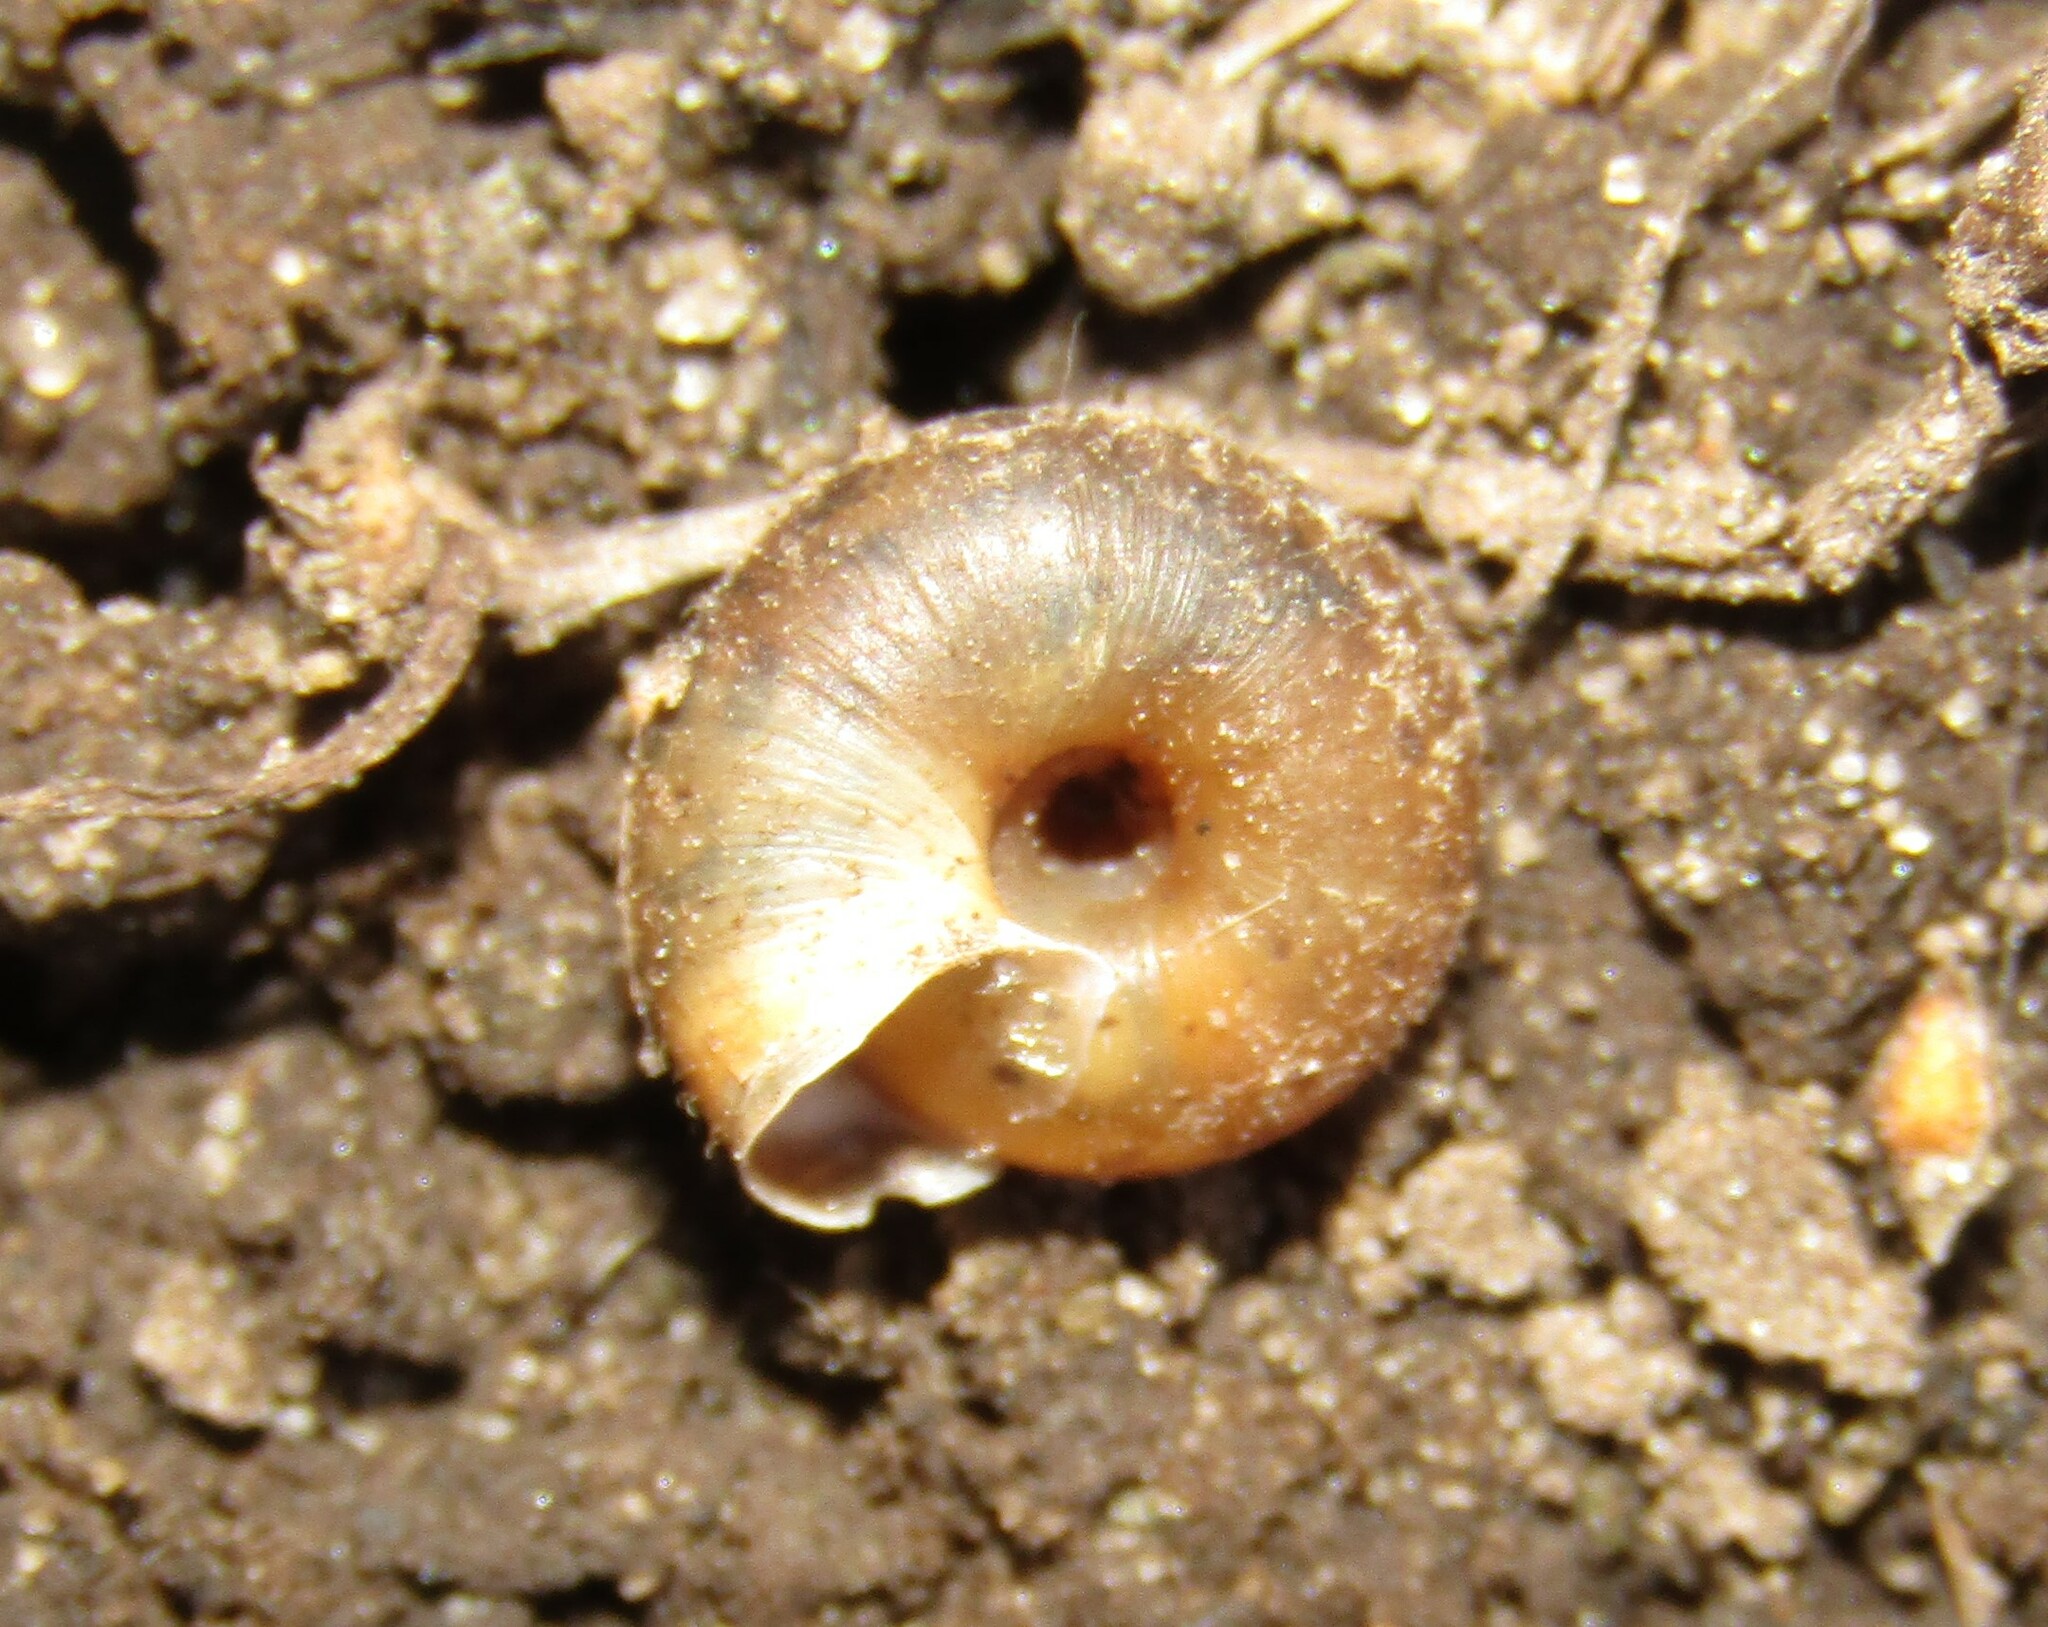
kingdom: Animalia
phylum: Mollusca
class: Gastropoda
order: Stylommatophora
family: Hygromiidae
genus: Trochulus
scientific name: Trochulus hispidus
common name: Hairy snail
